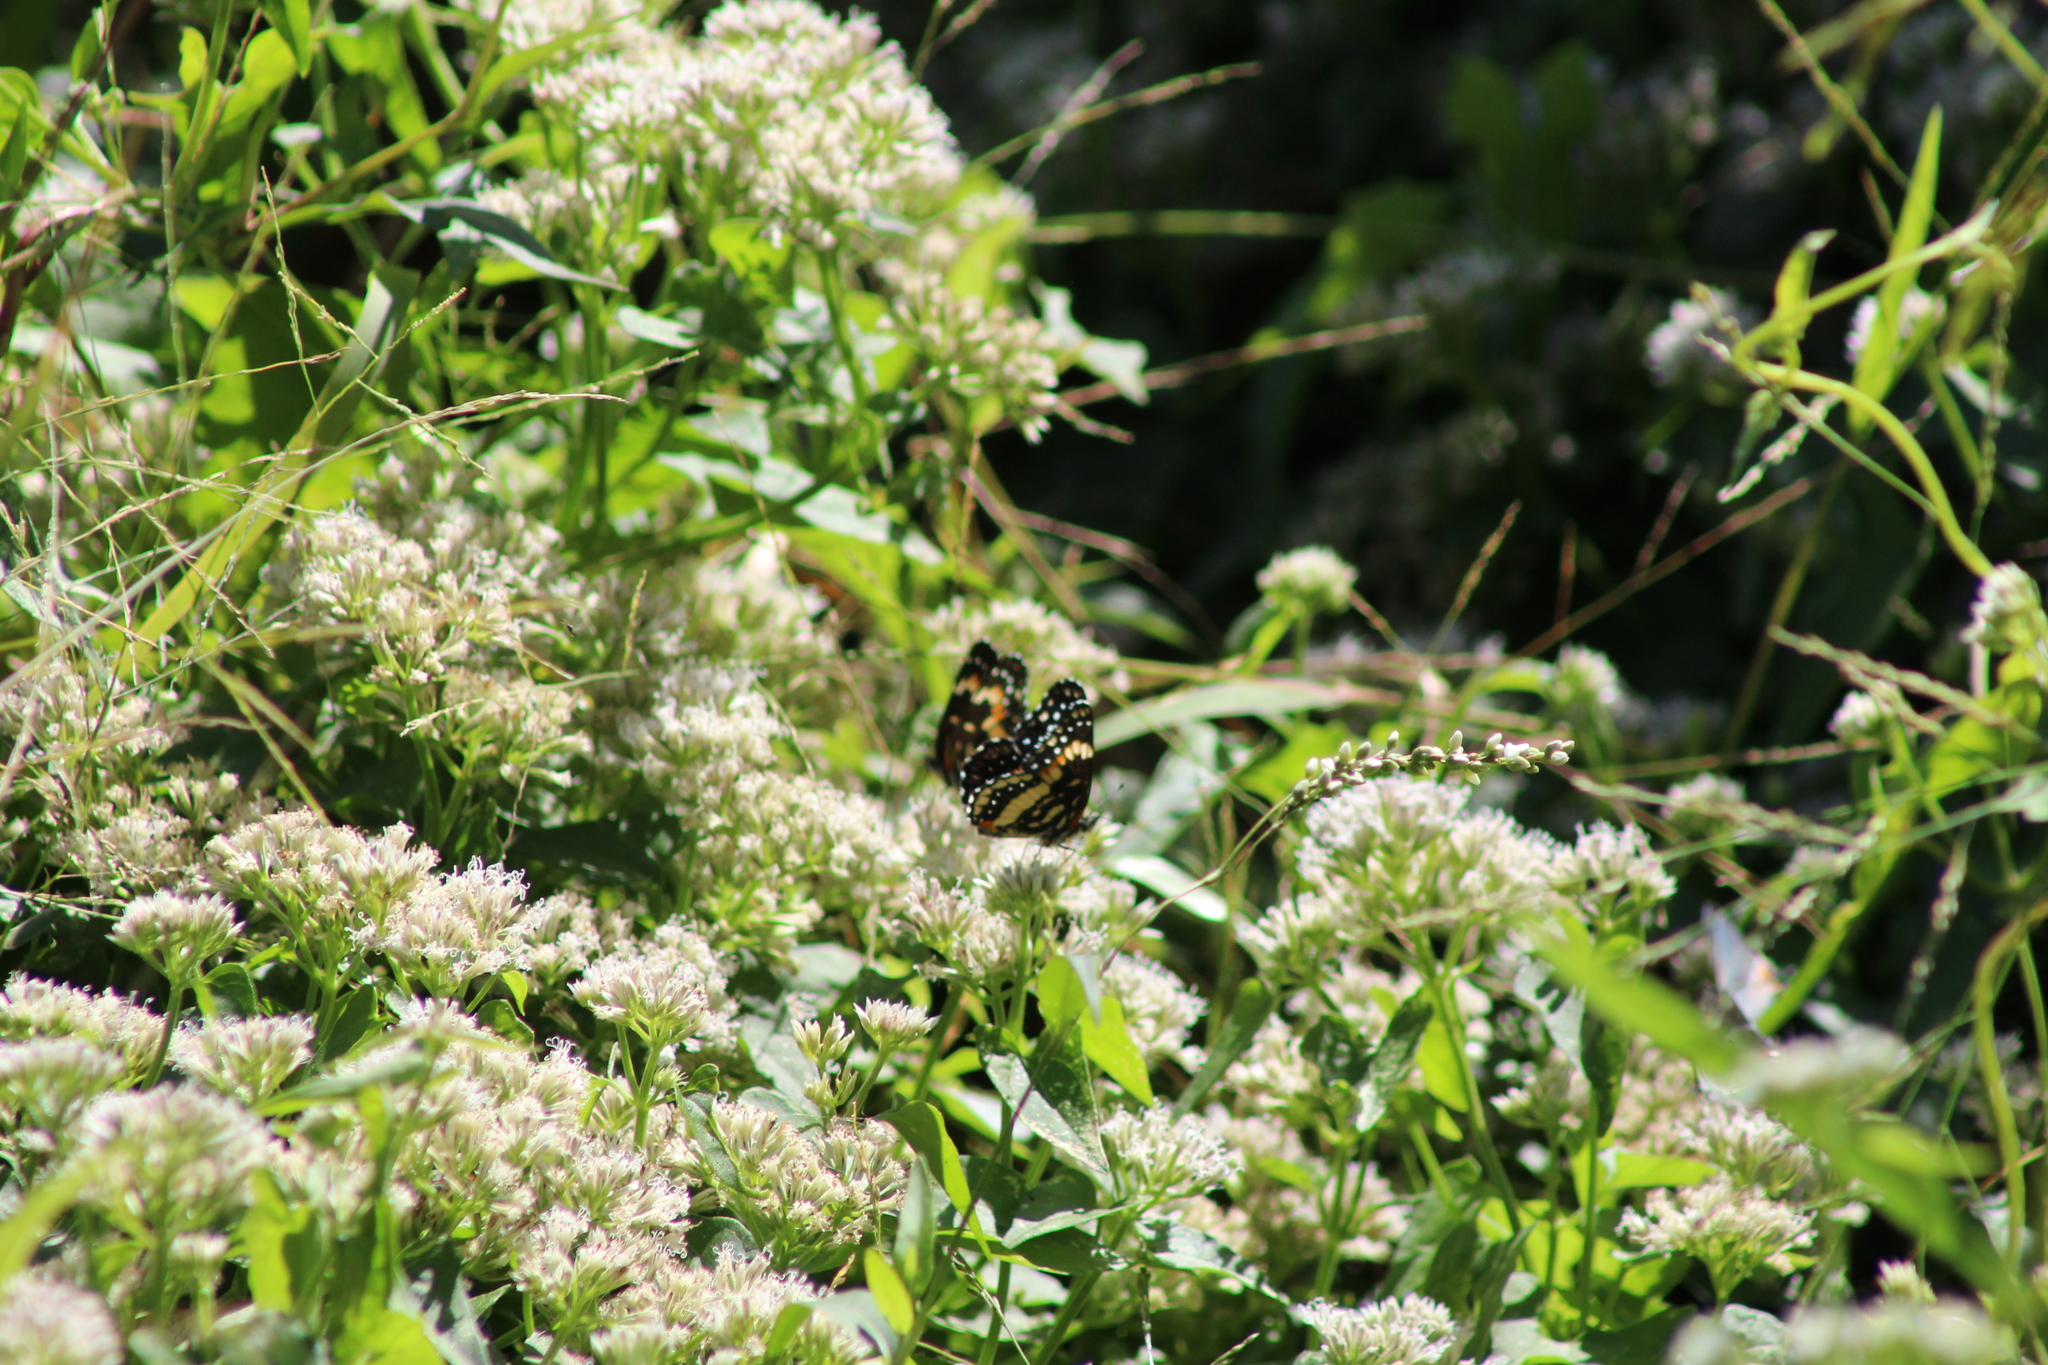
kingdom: Animalia
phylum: Arthropoda
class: Insecta
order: Lepidoptera
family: Nymphalidae
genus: Chlosyne
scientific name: Chlosyne lacinia
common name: Bordered patch
